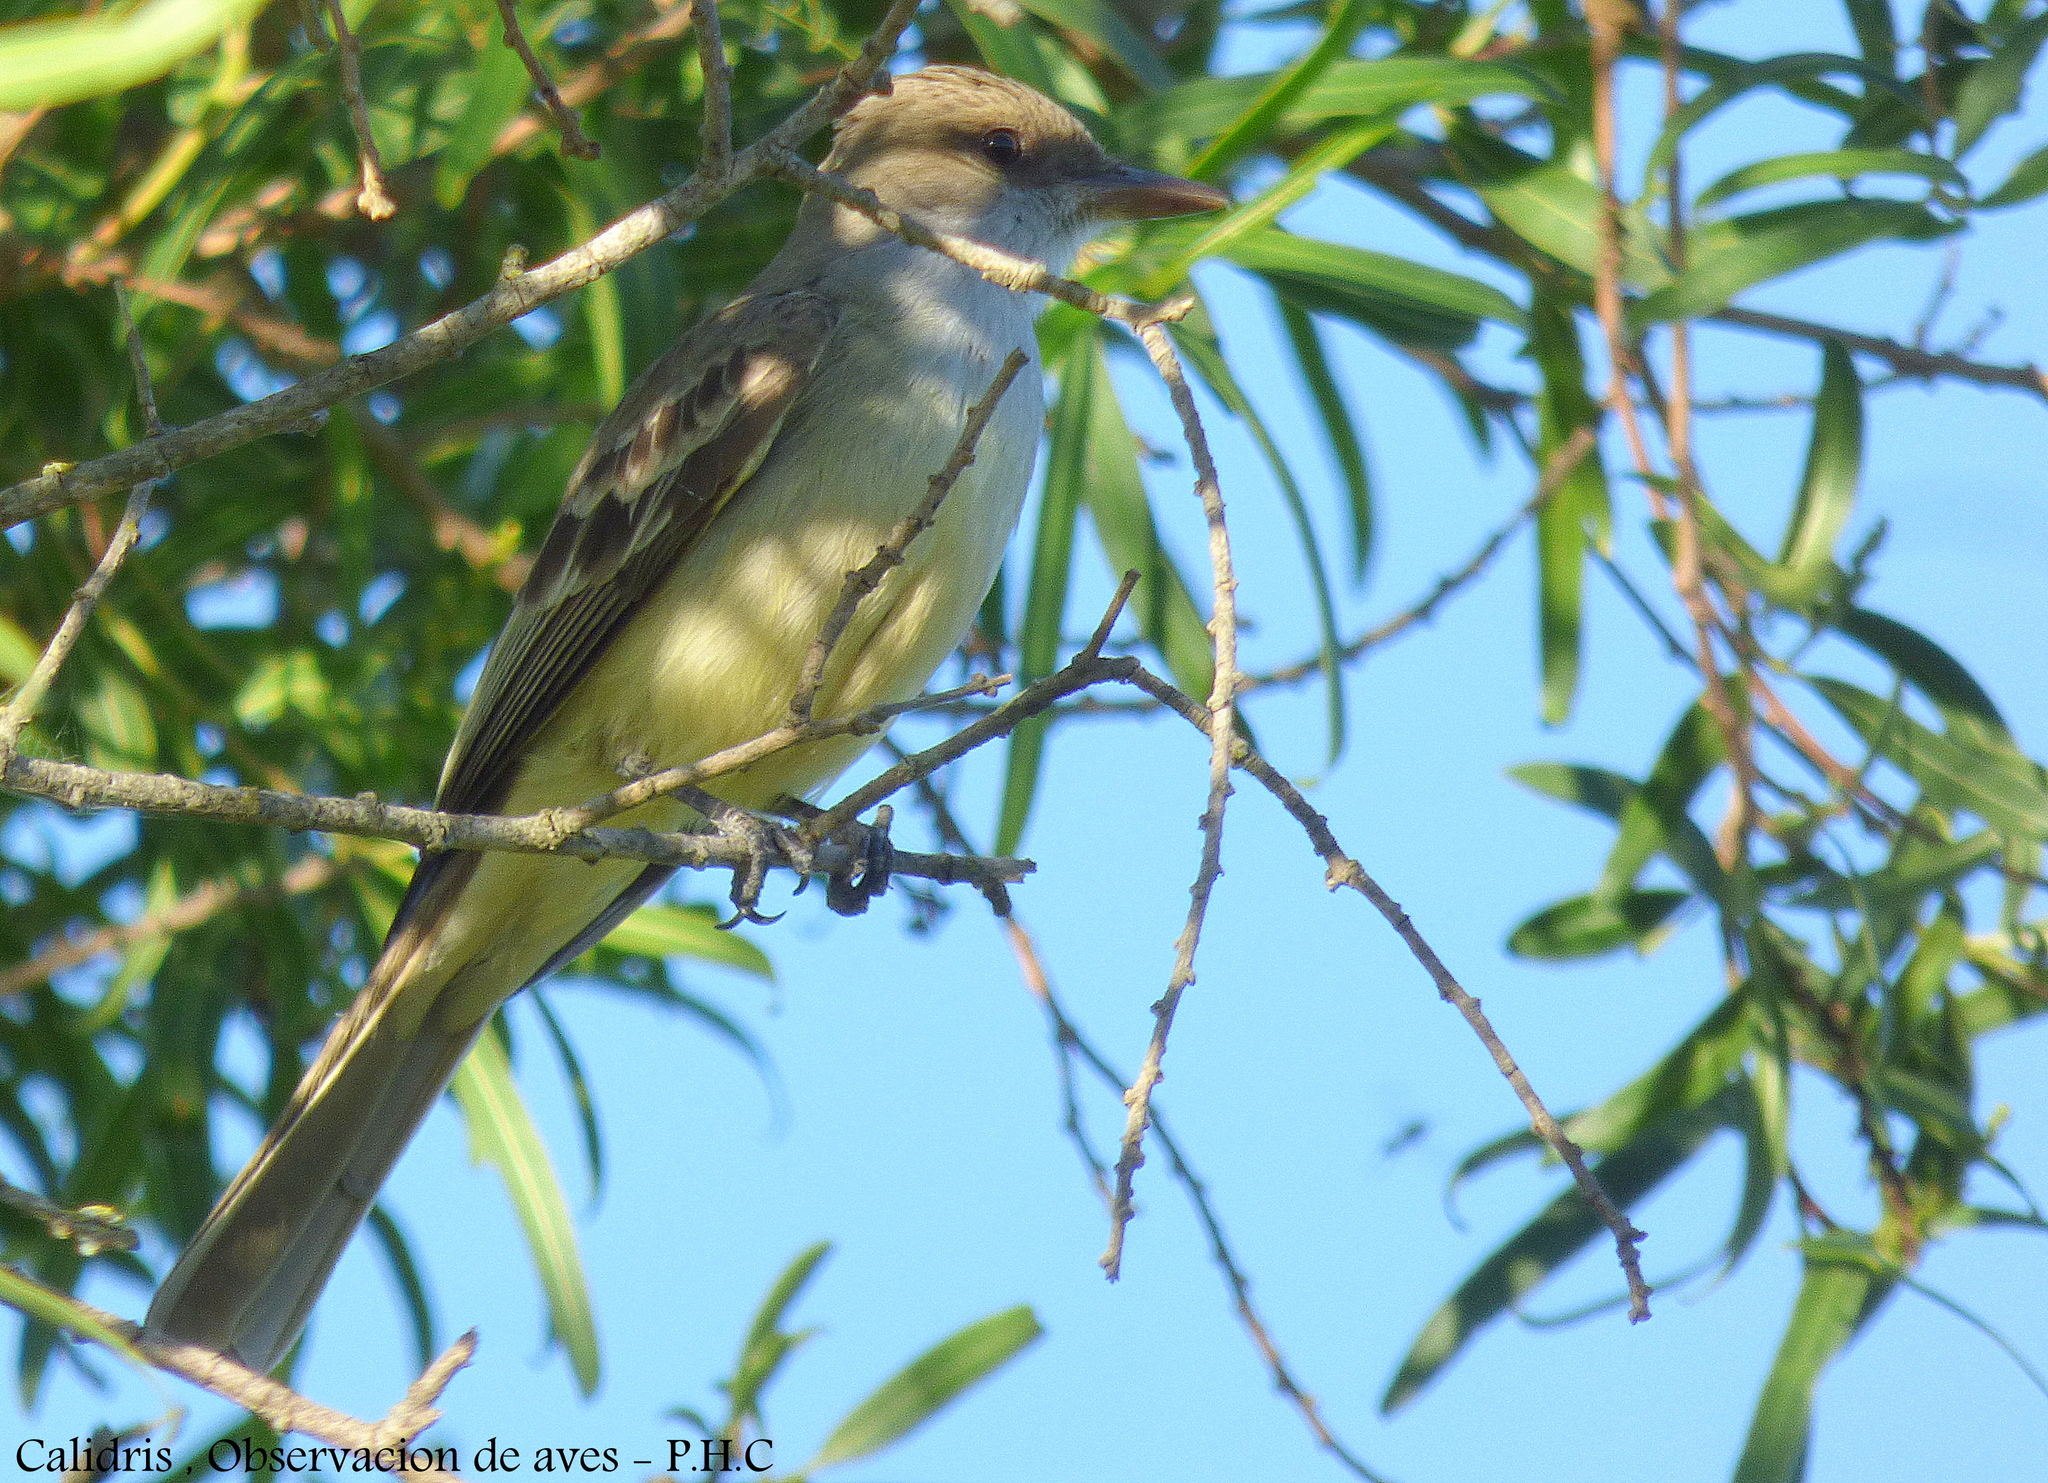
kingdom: Animalia
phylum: Chordata
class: Aves
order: Passeriformes
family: Tyrannidae
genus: Myiarchus
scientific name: Myiarchus swainsoni
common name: Swainson's flycatcher
